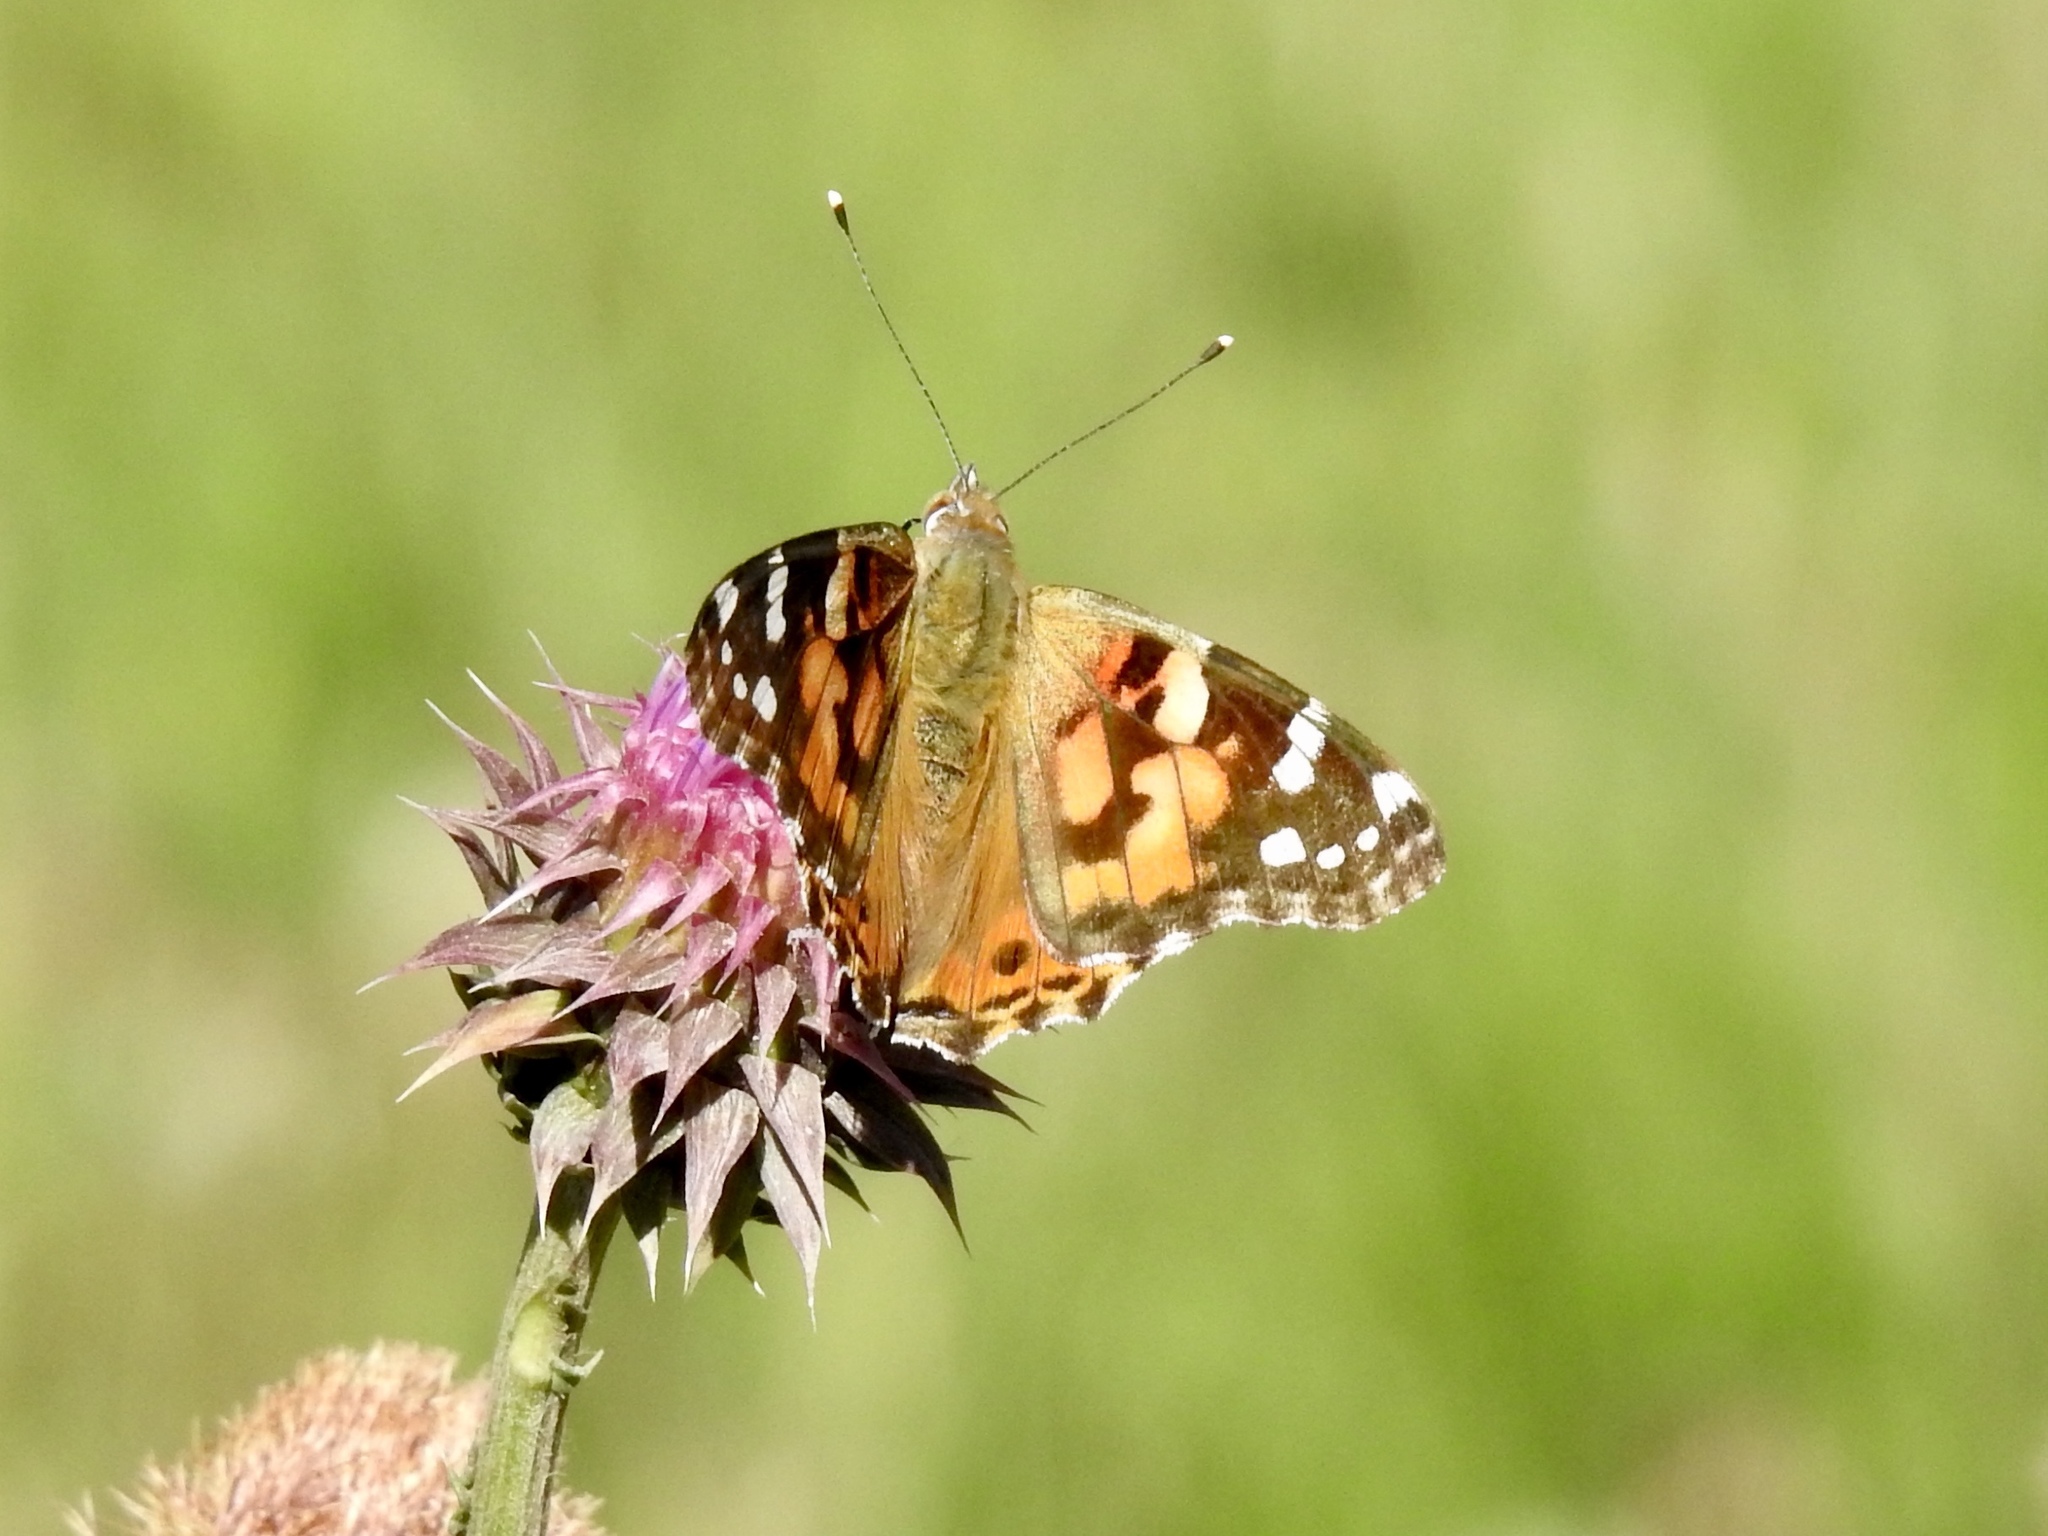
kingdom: Animalia
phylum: Arthropoda
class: Insecta
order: Lepidoptera
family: Nymphalidae
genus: Vanessa
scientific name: Vanessa cardui
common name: Painted lady
